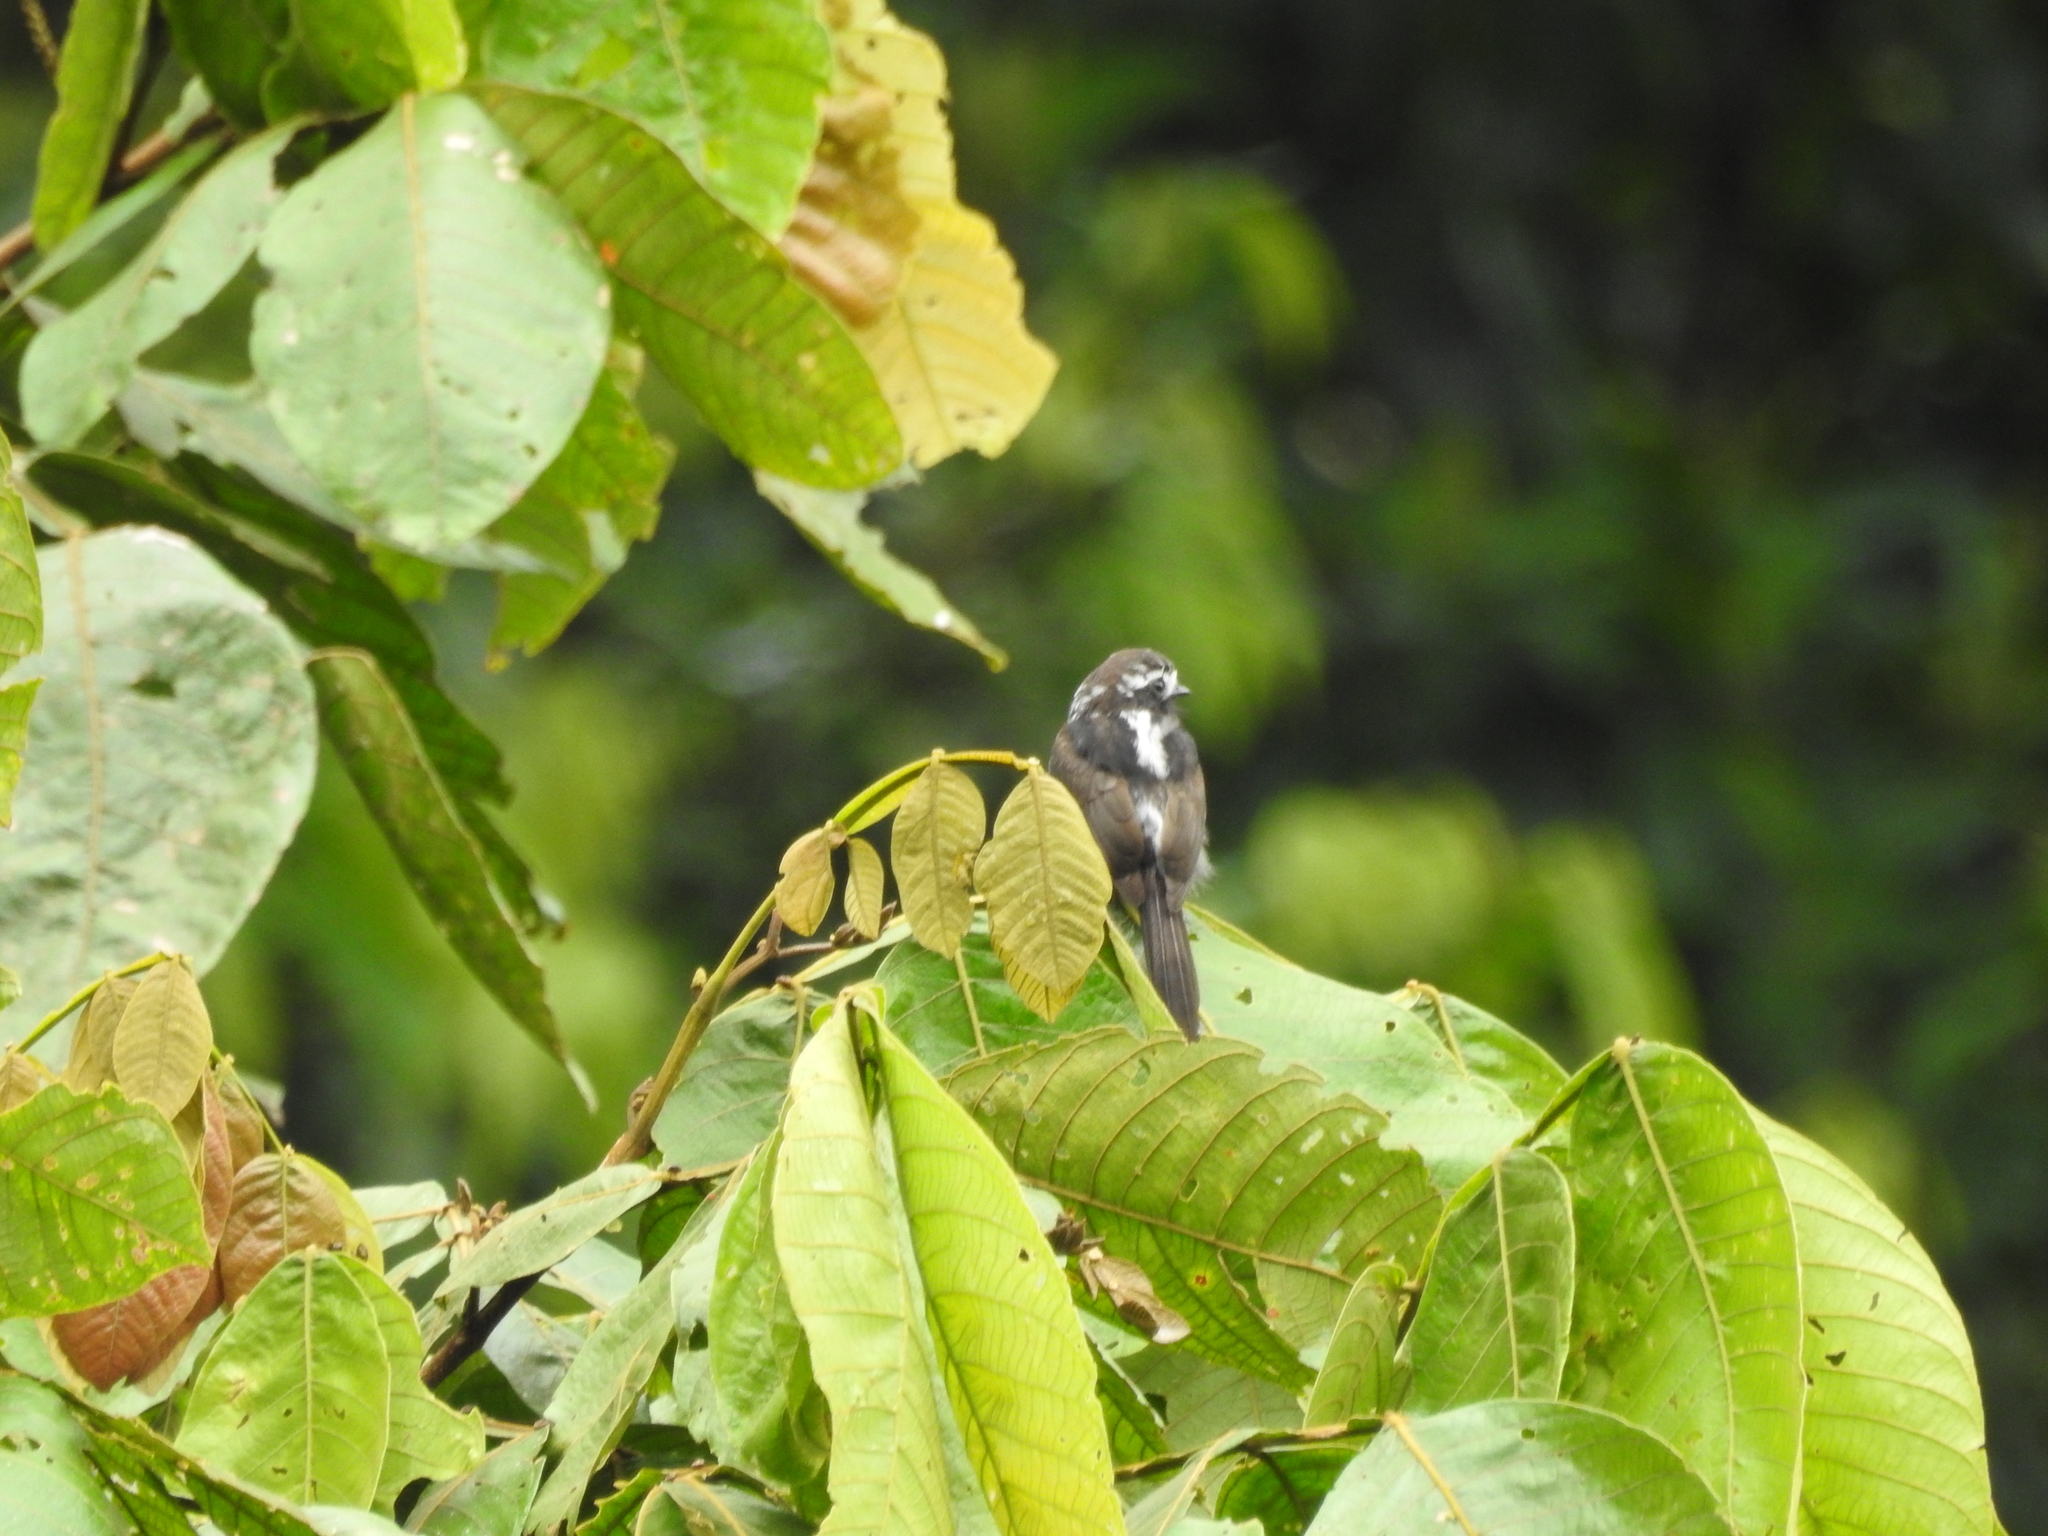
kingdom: Animalia
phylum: Chordata
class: Aves
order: Passeriformes
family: Tyrannidae
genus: Colonia
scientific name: Colonia colonus
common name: Long-tailed tyrant
